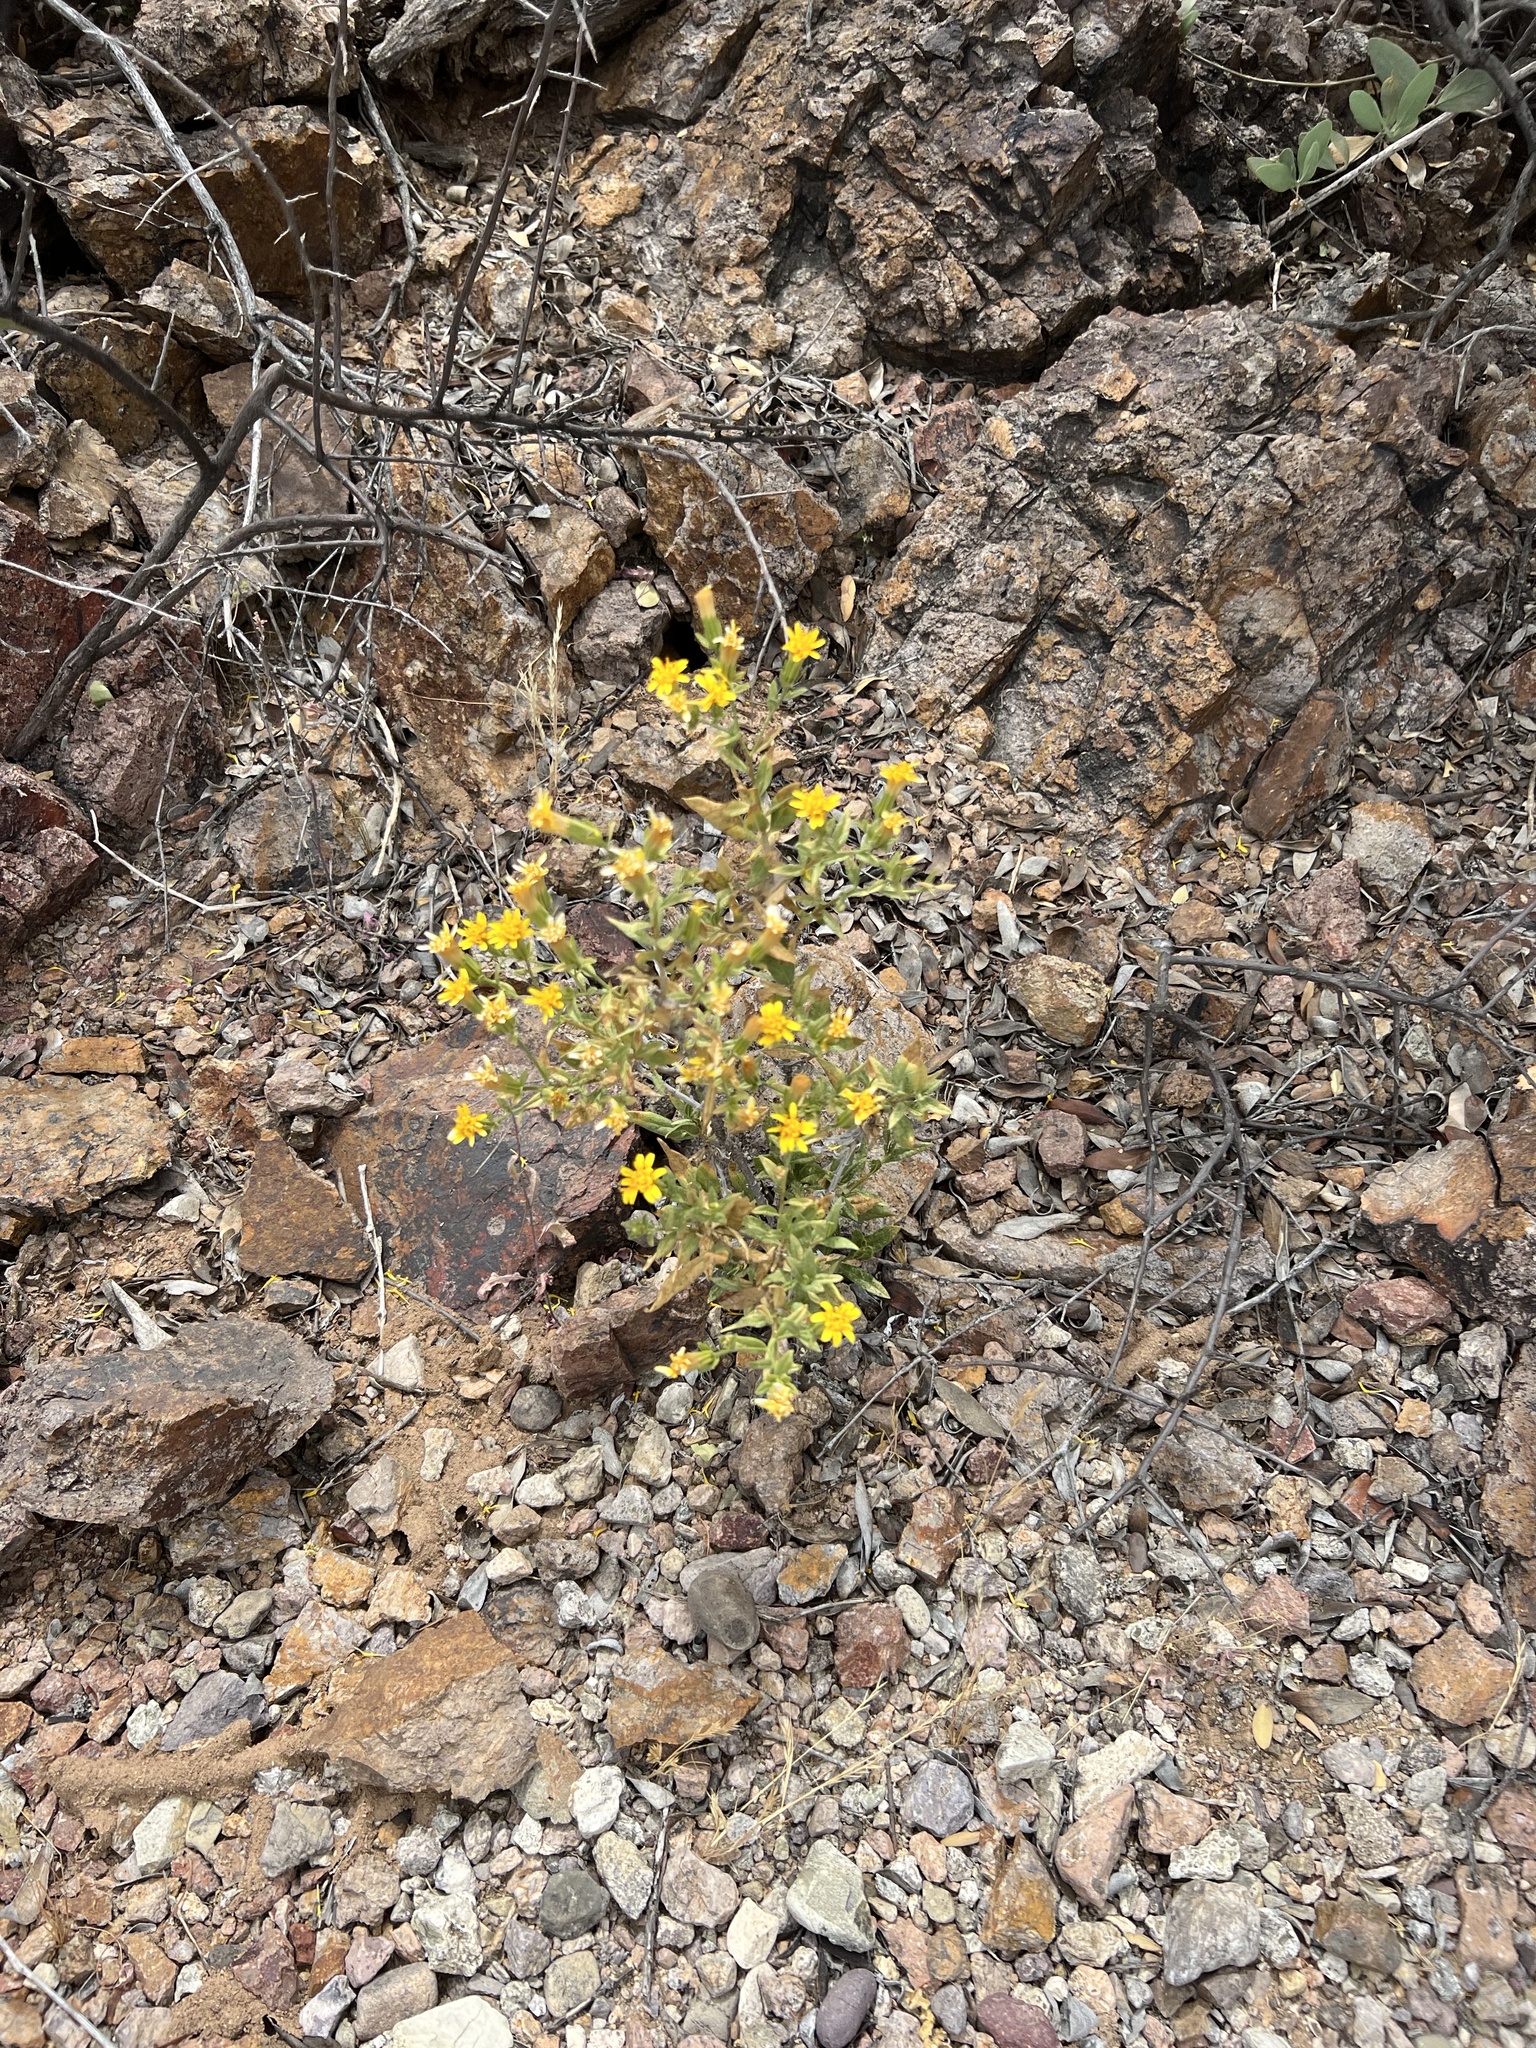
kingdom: Plantae
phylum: Tracheophyta
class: Magnoliopsida
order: Asterales
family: Asteraceae
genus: Trixis
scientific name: Trixis californica
